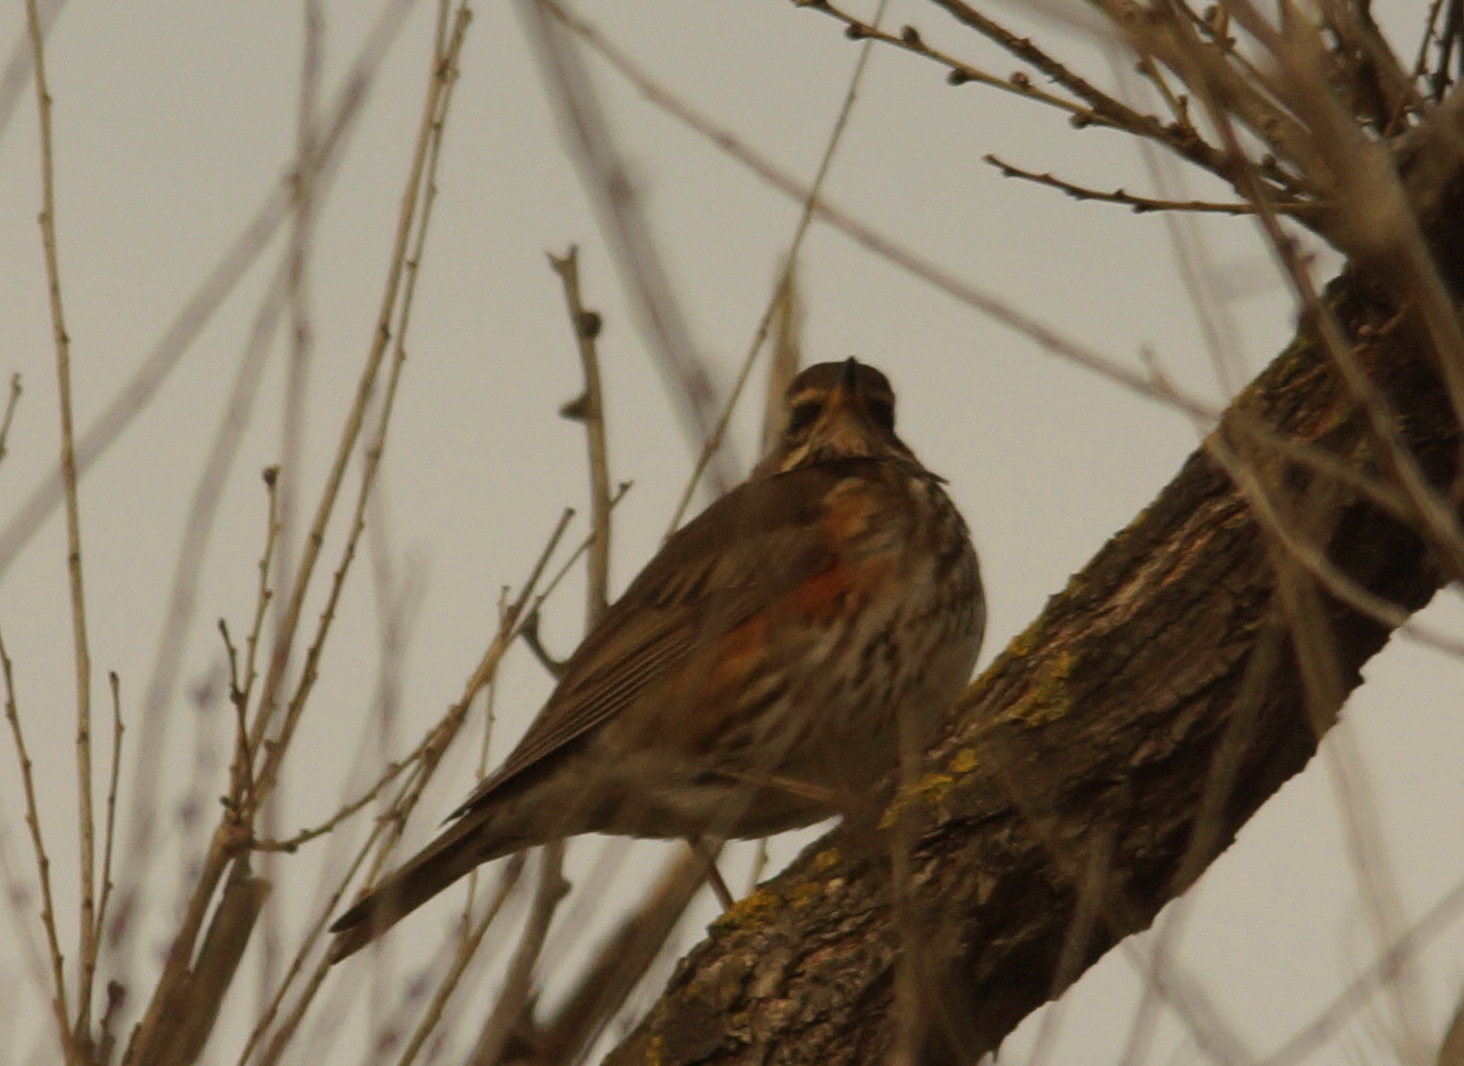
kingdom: Animalia
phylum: Chordata
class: Aves
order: Passeriformes
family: Turdidae
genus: Turdus
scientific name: Turdus iliacus
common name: Redwing
